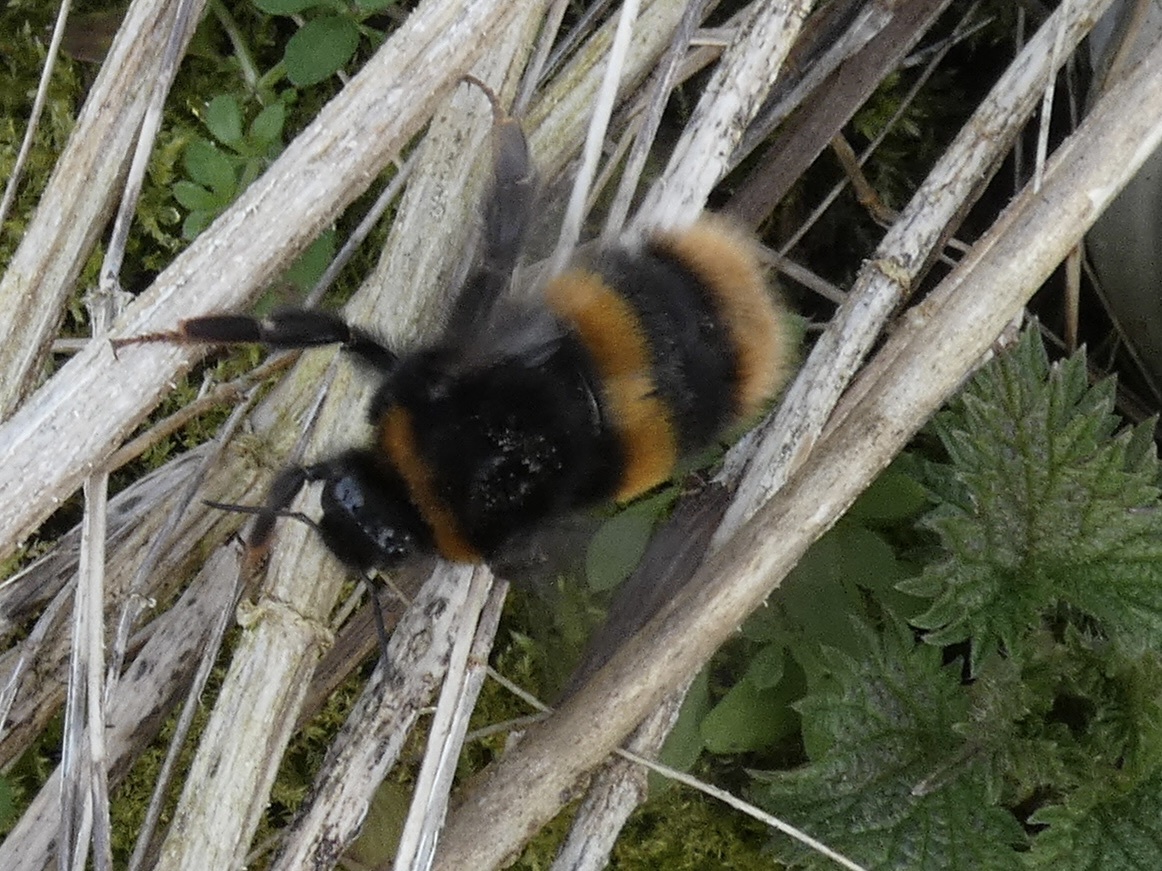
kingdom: Animalia
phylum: Arthropoda
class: Insecta
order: Hymenoptera
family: Apidae
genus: Bombus
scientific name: Bombus terrestris
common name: Buff-tailed bumblebee
